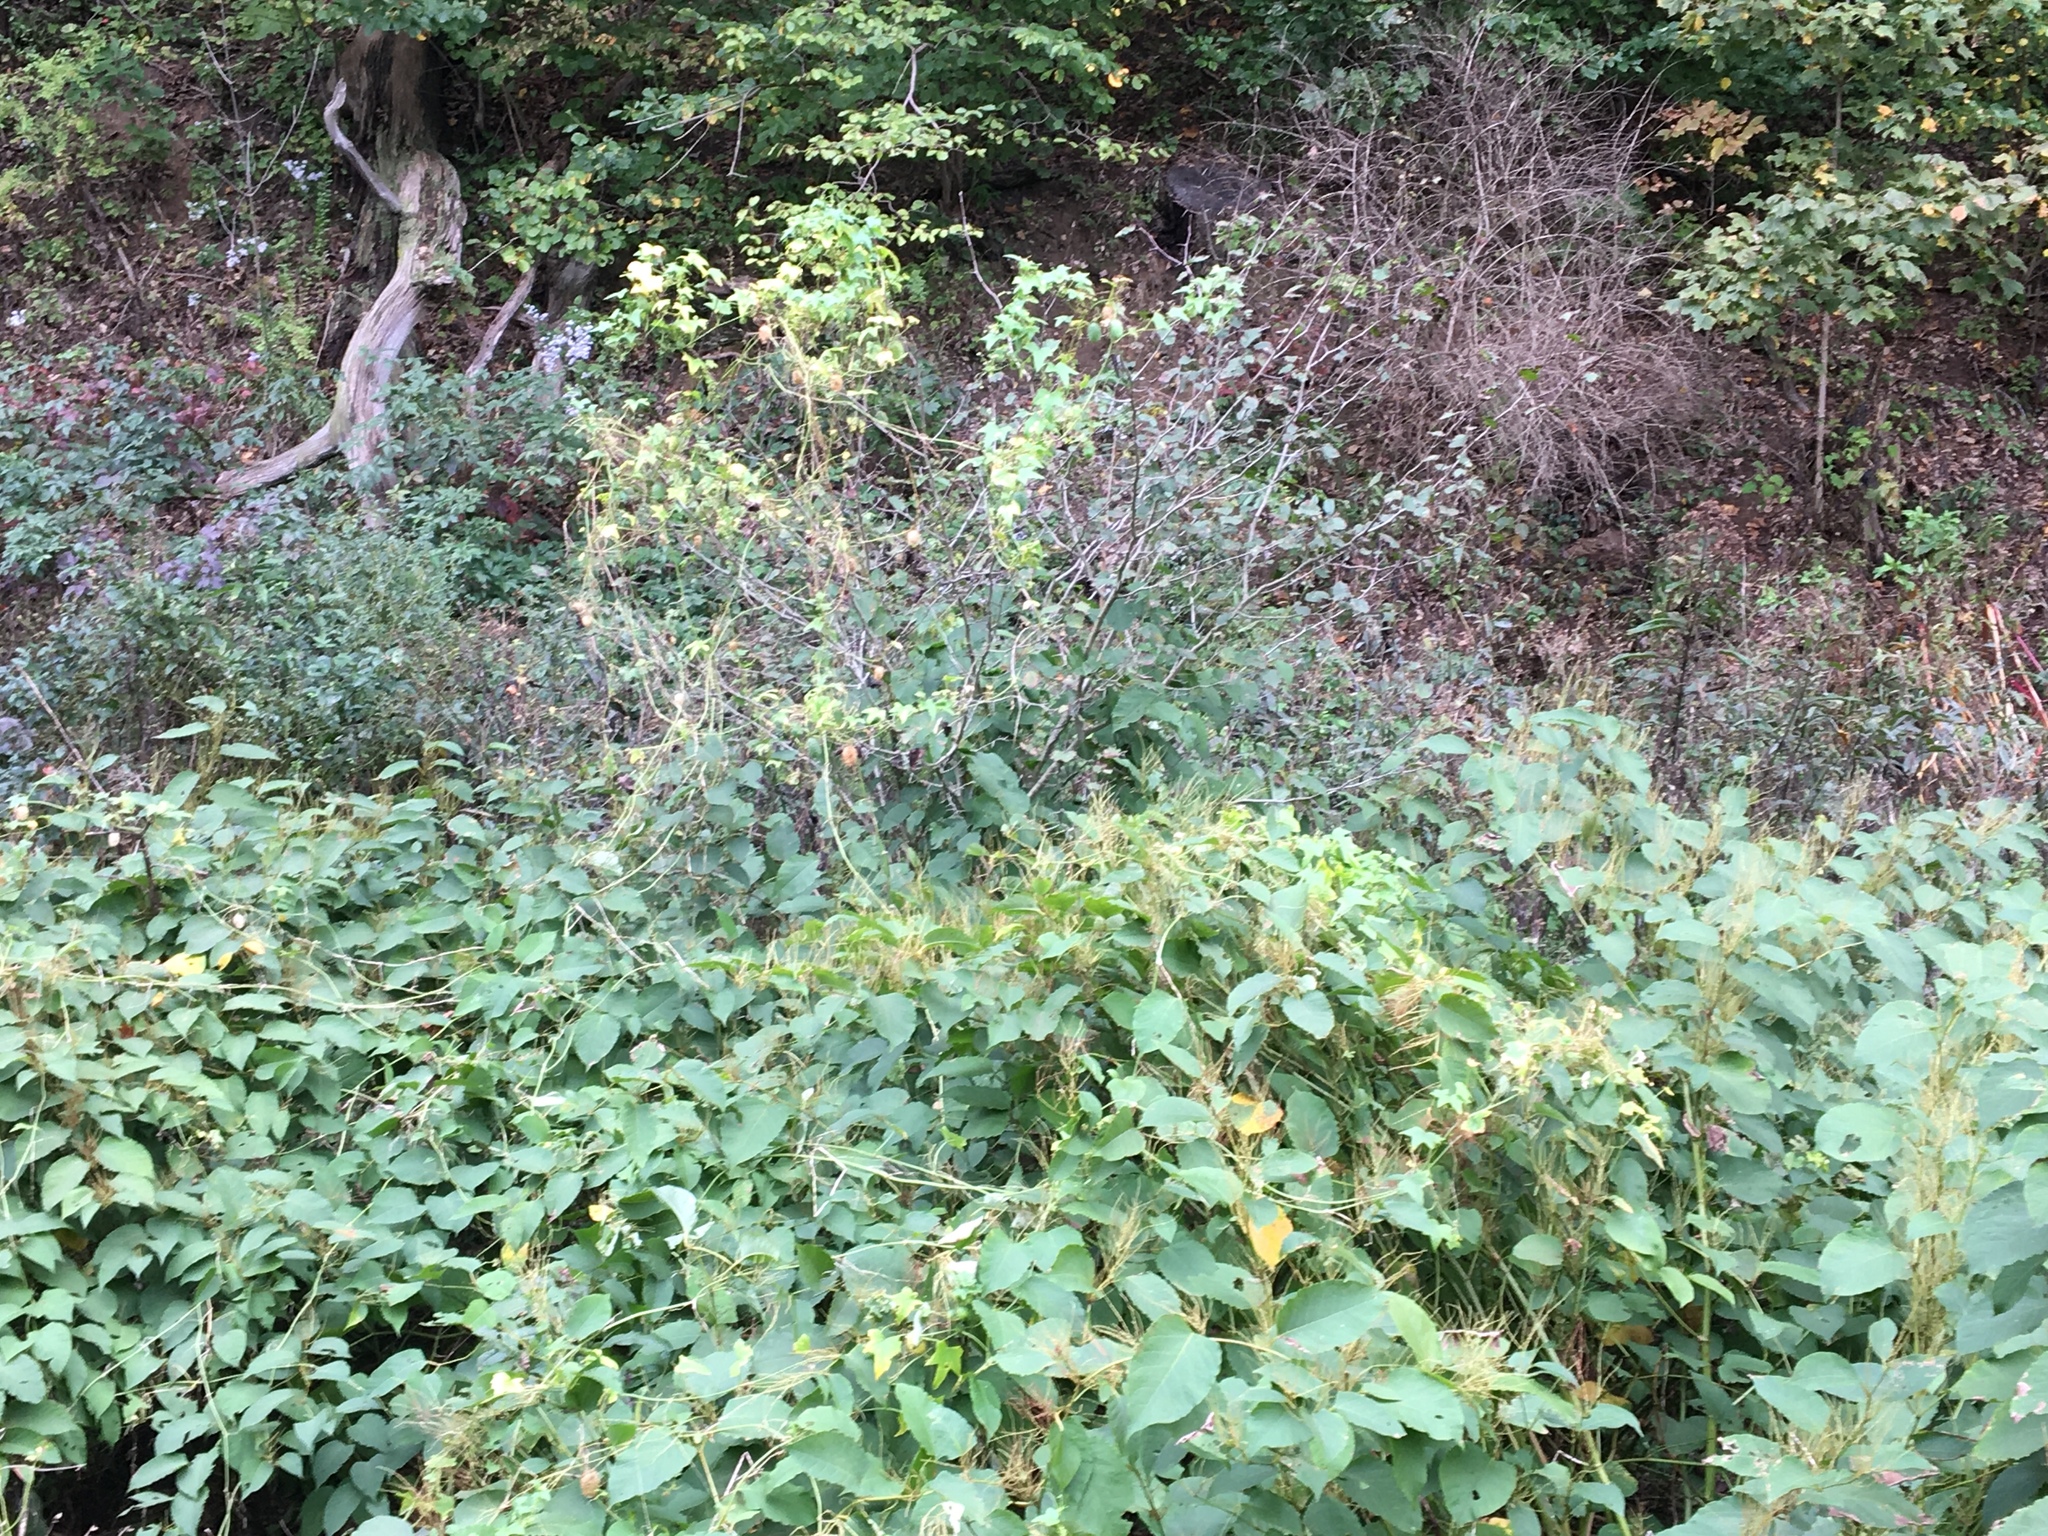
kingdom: Plantae
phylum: Tracheophyta
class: Magnoliopsida
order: Cucurbitales
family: Cucurbitaceae
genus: Echinocystis
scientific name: Echinocystis lobata
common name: Wild cucumber
